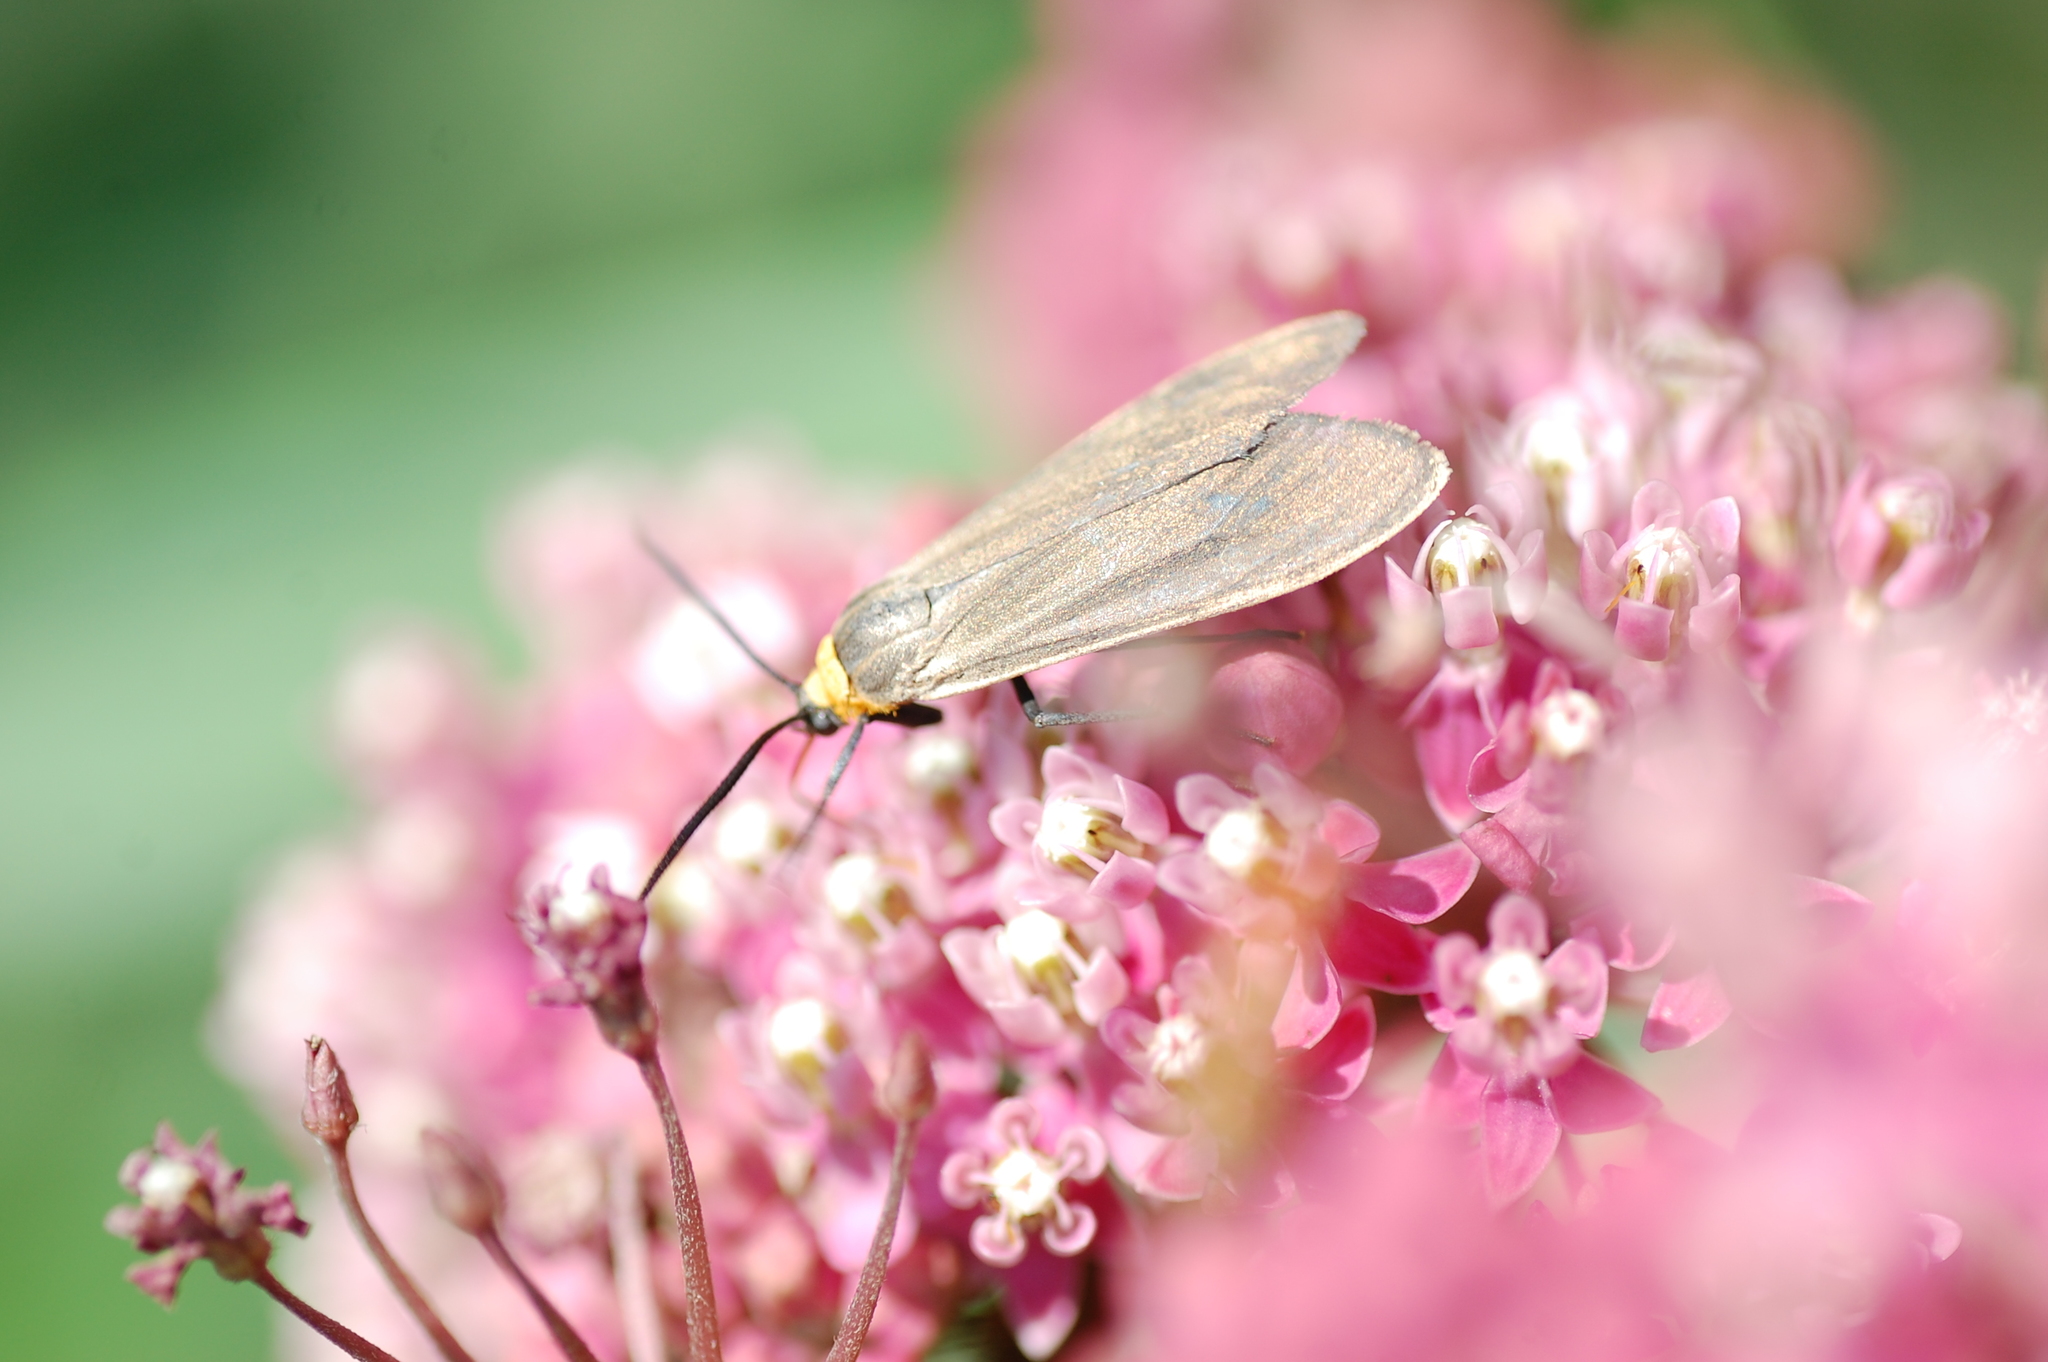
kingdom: Animalia
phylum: Arthropoda
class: Insecta
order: Lepidoptera
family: Erebidae
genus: Cisseps
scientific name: Cisseps fulvicollis
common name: Yellow-collared scape moth
